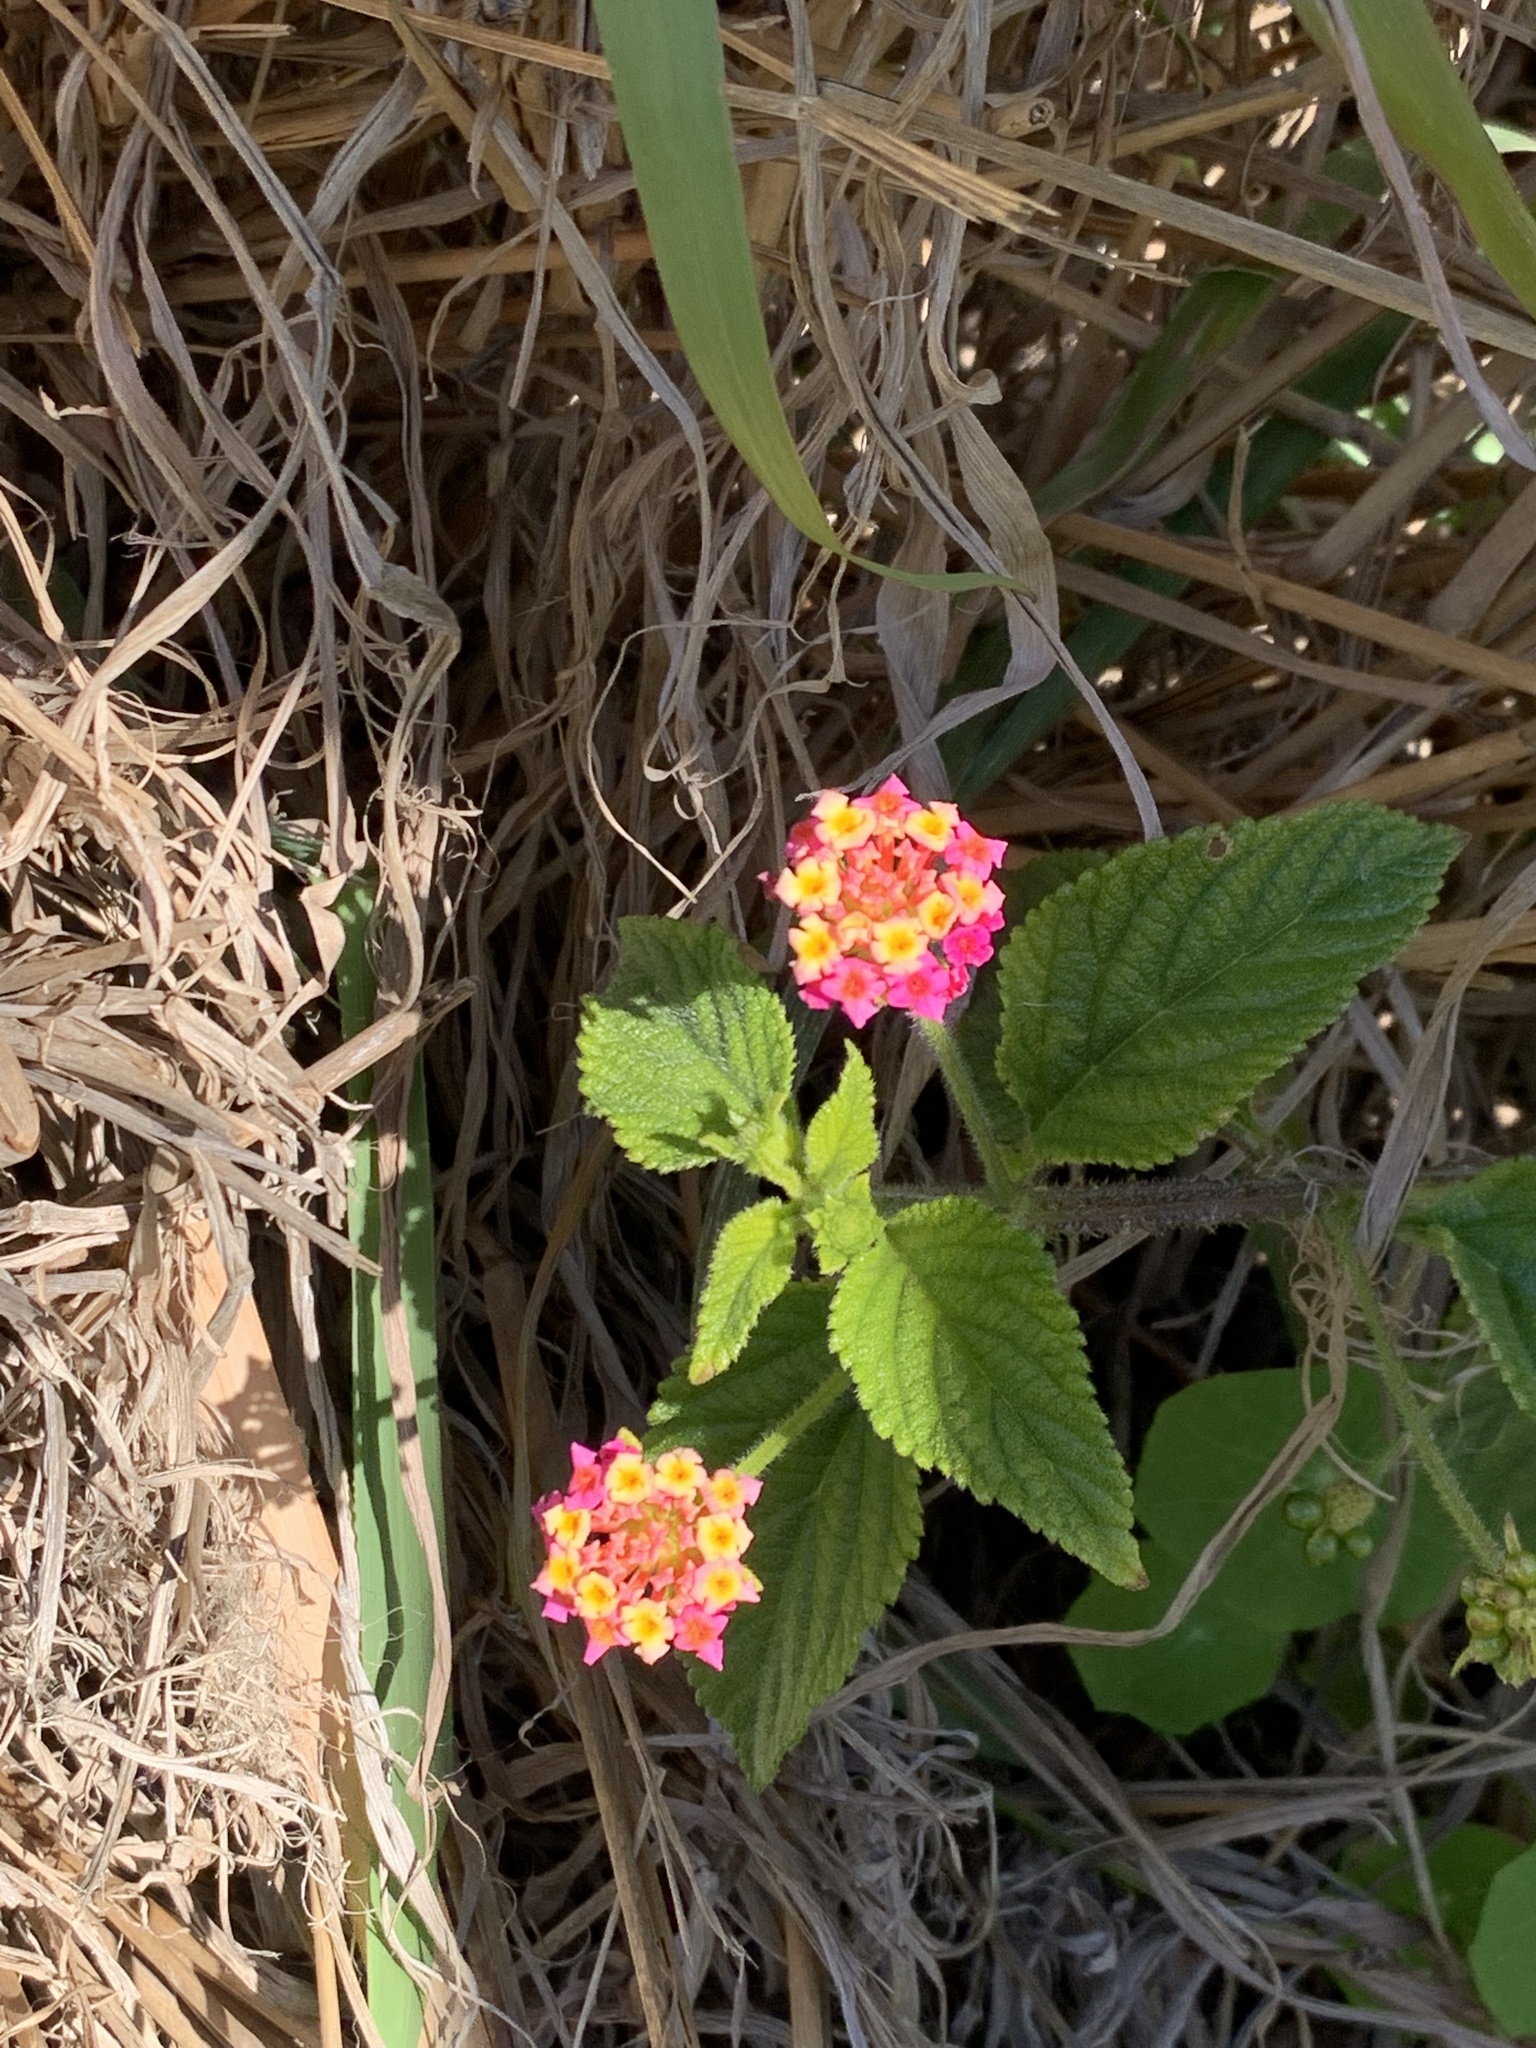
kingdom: Plantae
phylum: Tracheophyta
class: Magnoliopsida
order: Lamiales
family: Verbenaceae
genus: Lantana
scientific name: Lantana camara
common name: Lantana
